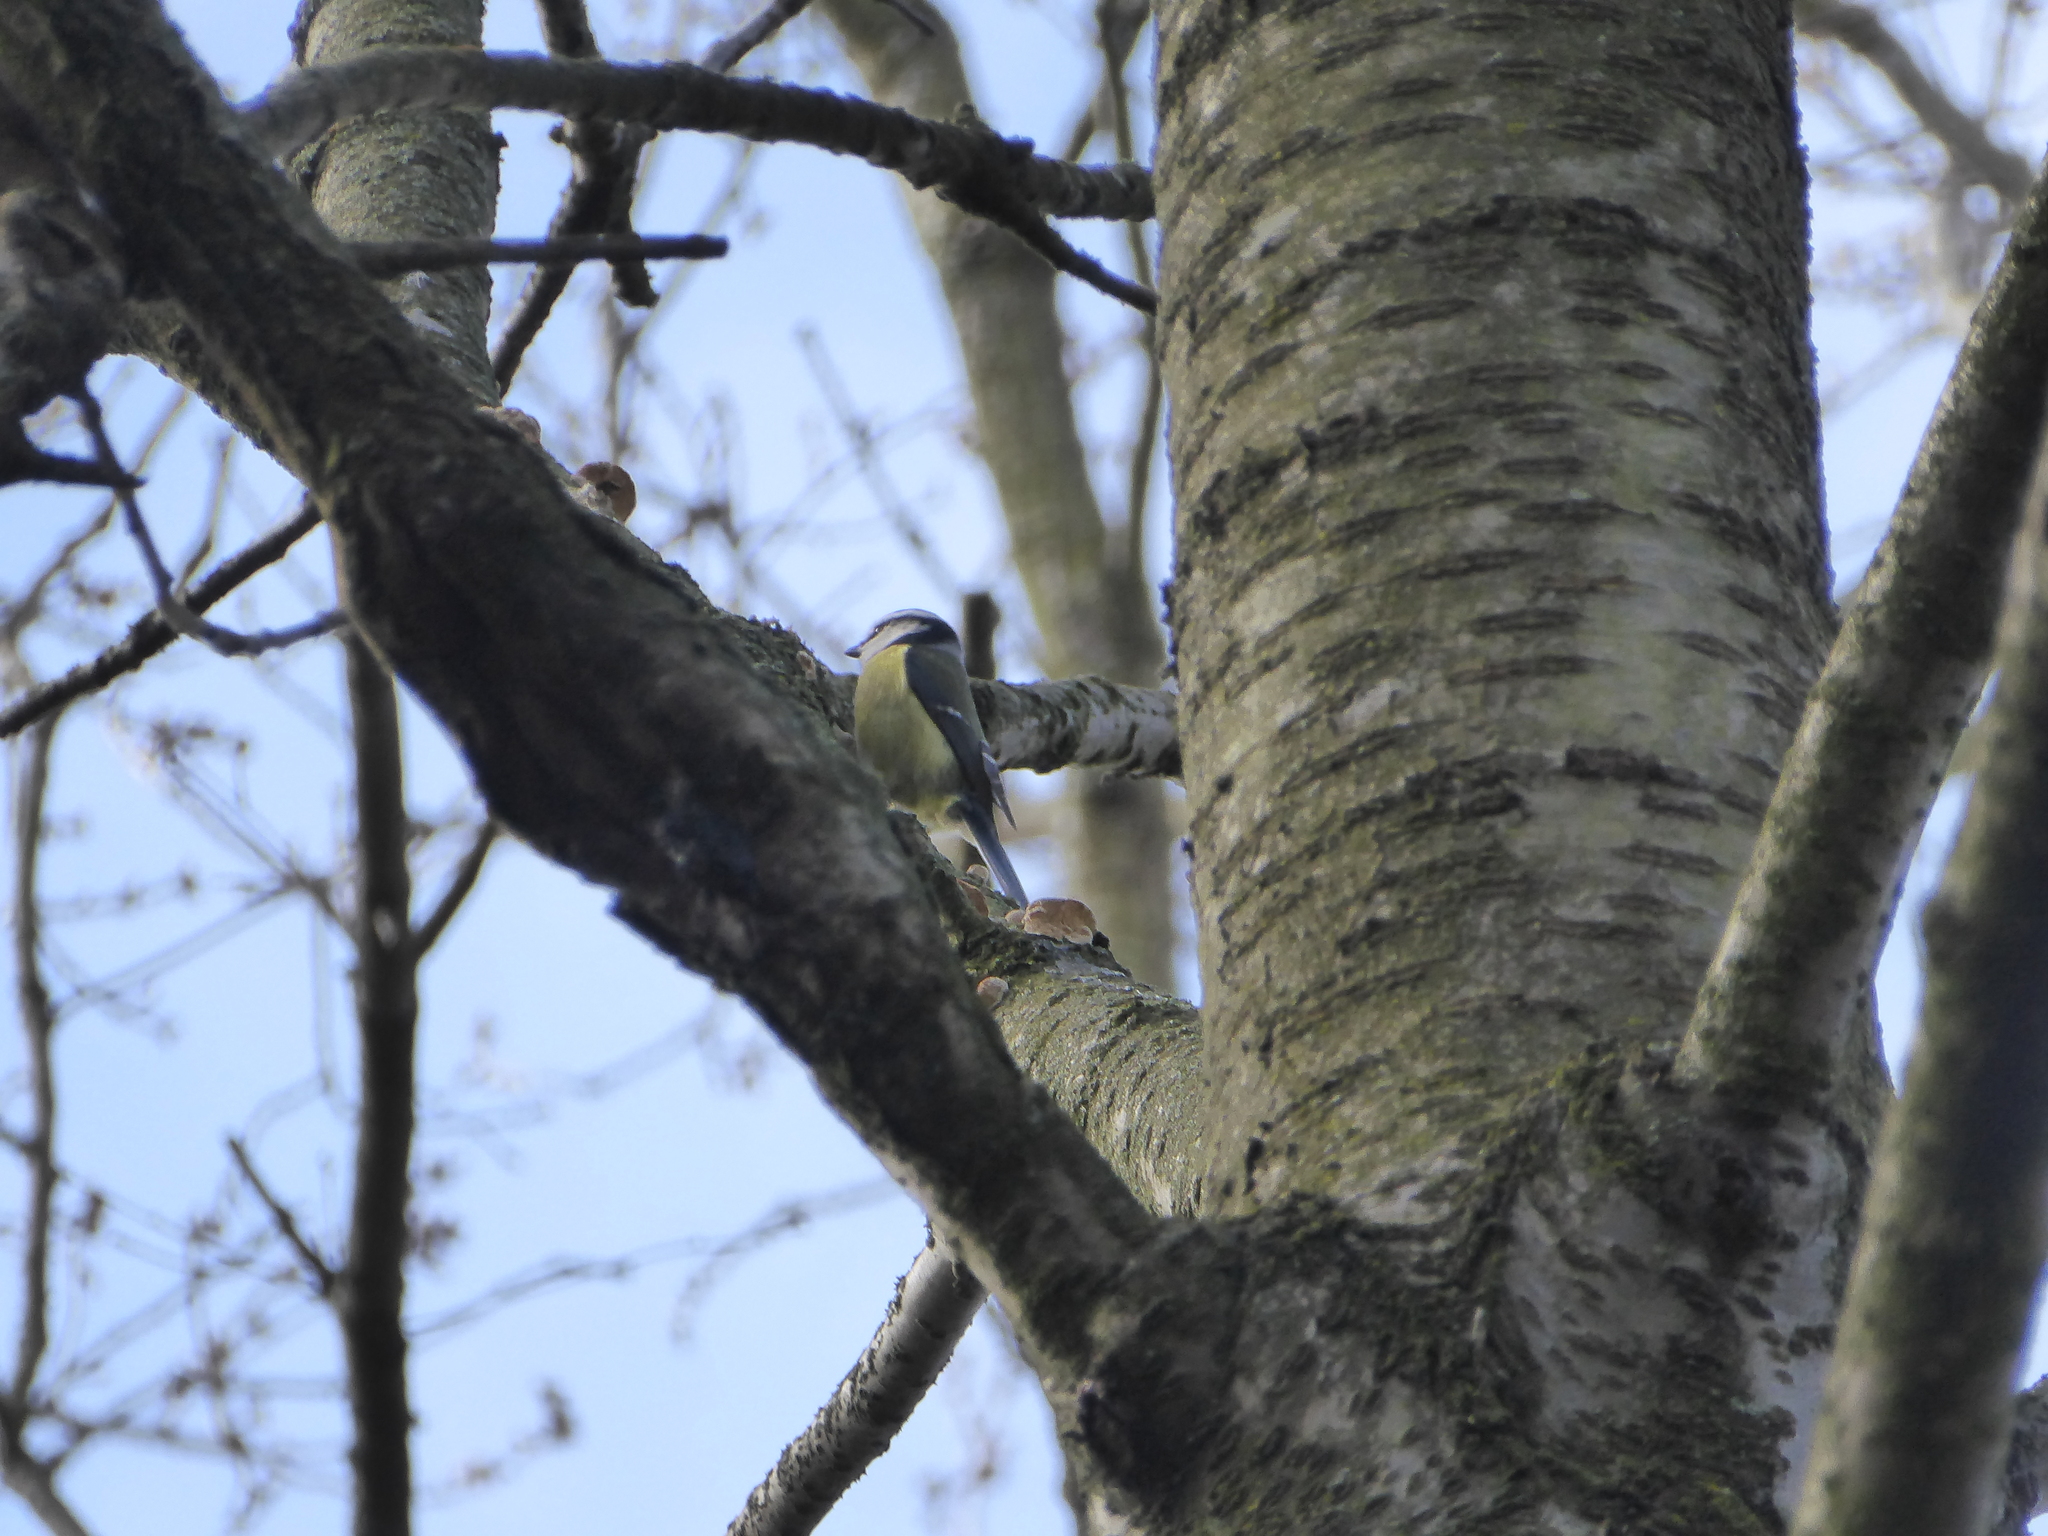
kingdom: Animalia
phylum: Chordata
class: Aves
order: Passeriformes
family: Paridae
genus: Cyanistes
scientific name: Cyanistes caeruleus
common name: Eurasian blue tit
